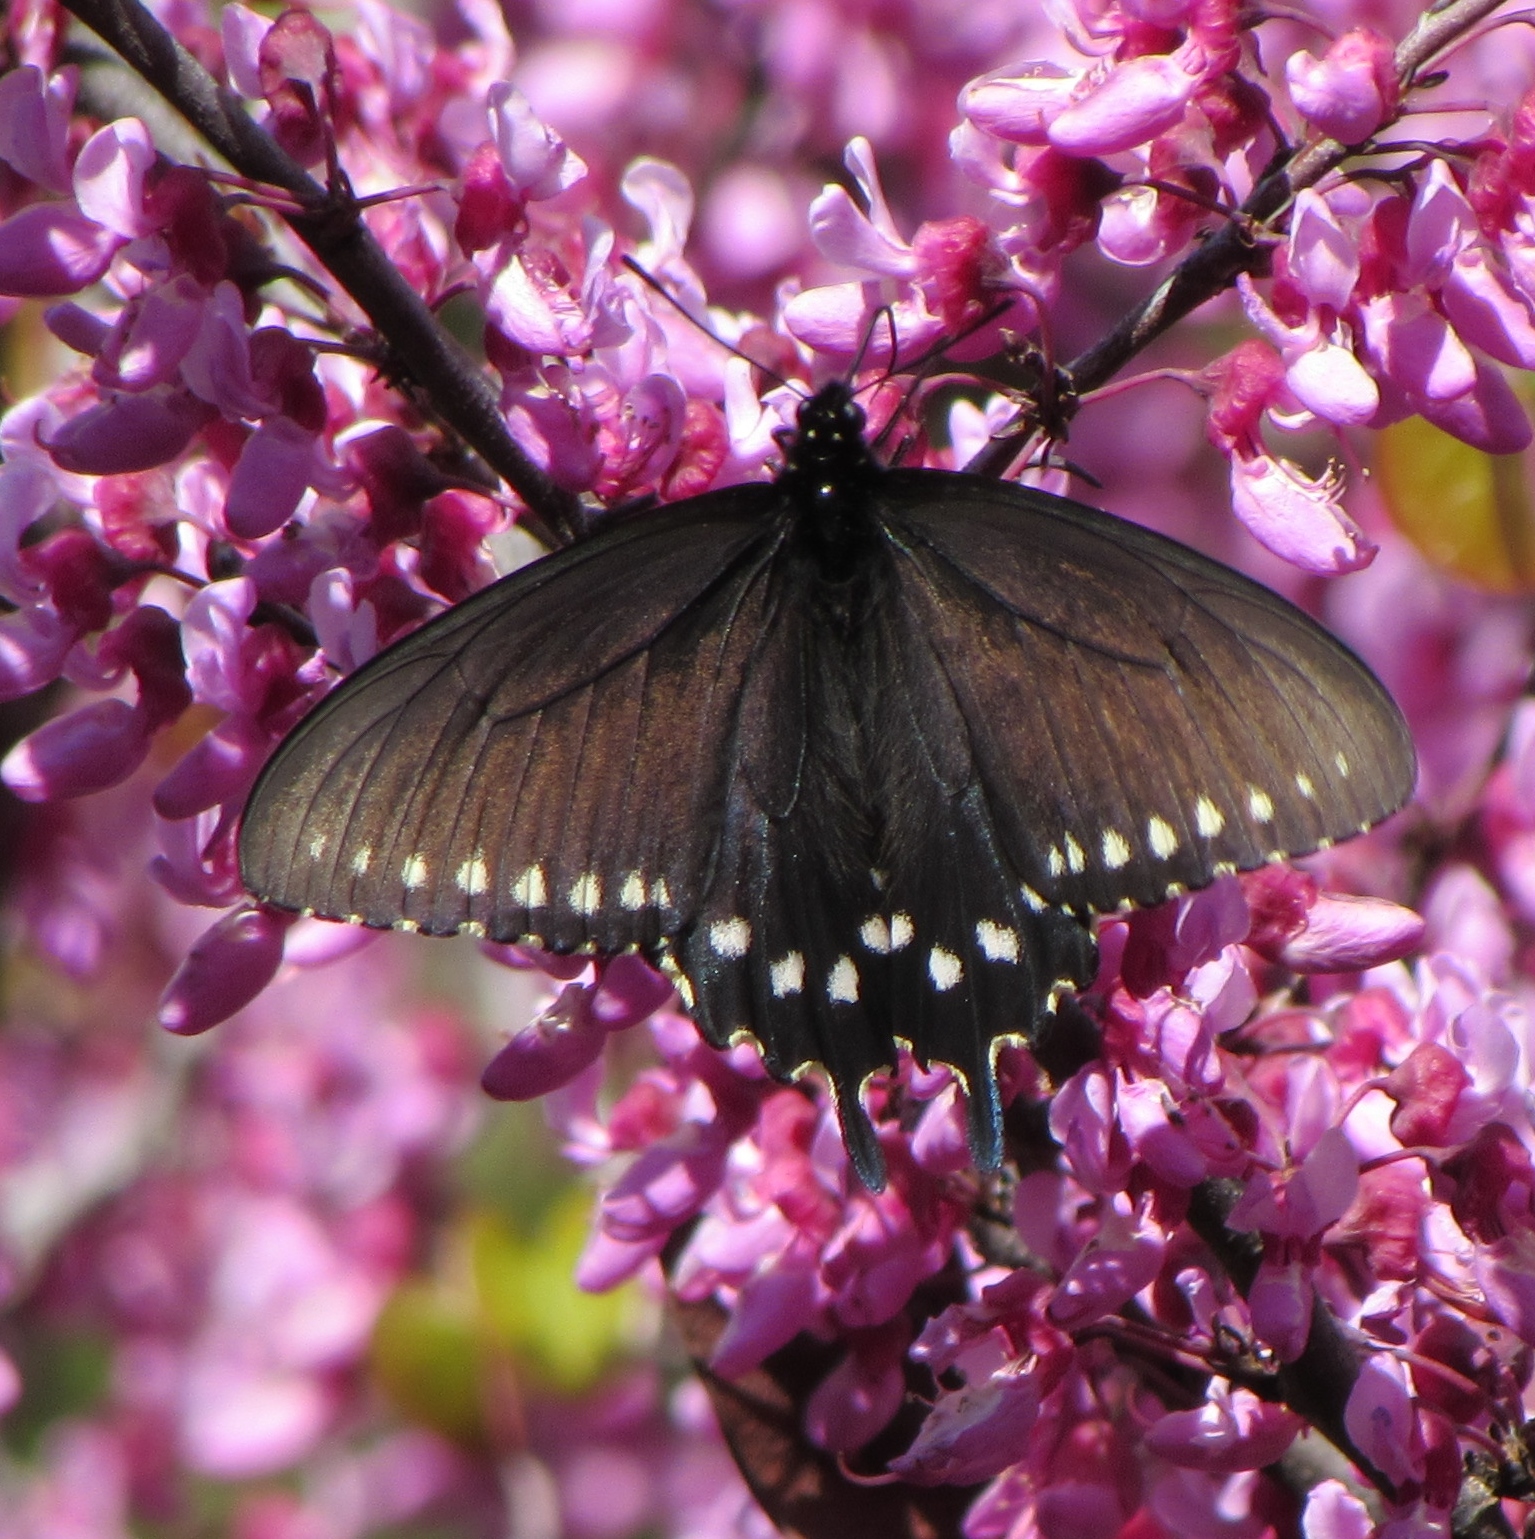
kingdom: Animalia
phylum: Arthropoda
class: Insecta
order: Lepidoptera
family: Papilionidae
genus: Battus
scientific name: Battus philenor
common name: Pipevine swallowtail
